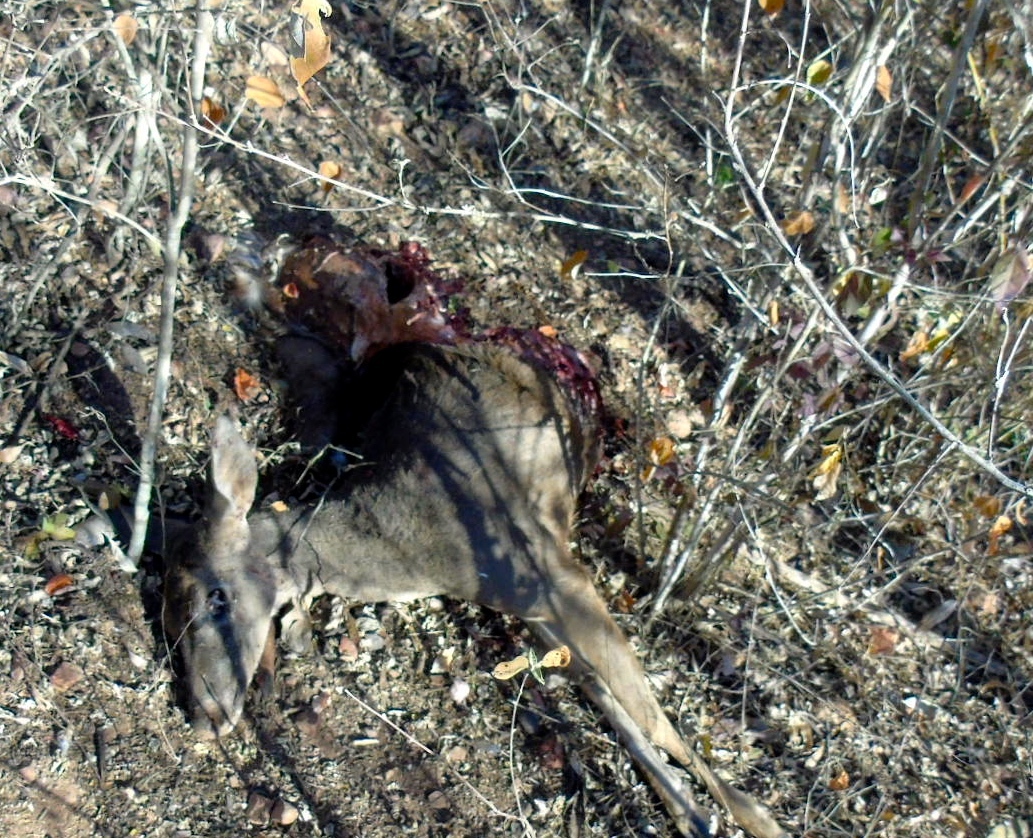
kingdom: Animalia
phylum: Chordata
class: Mammalia
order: Artiodactyla
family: Cervidae
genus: Odocoileus
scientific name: Odocoileus virginianus
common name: White-tailed deer
